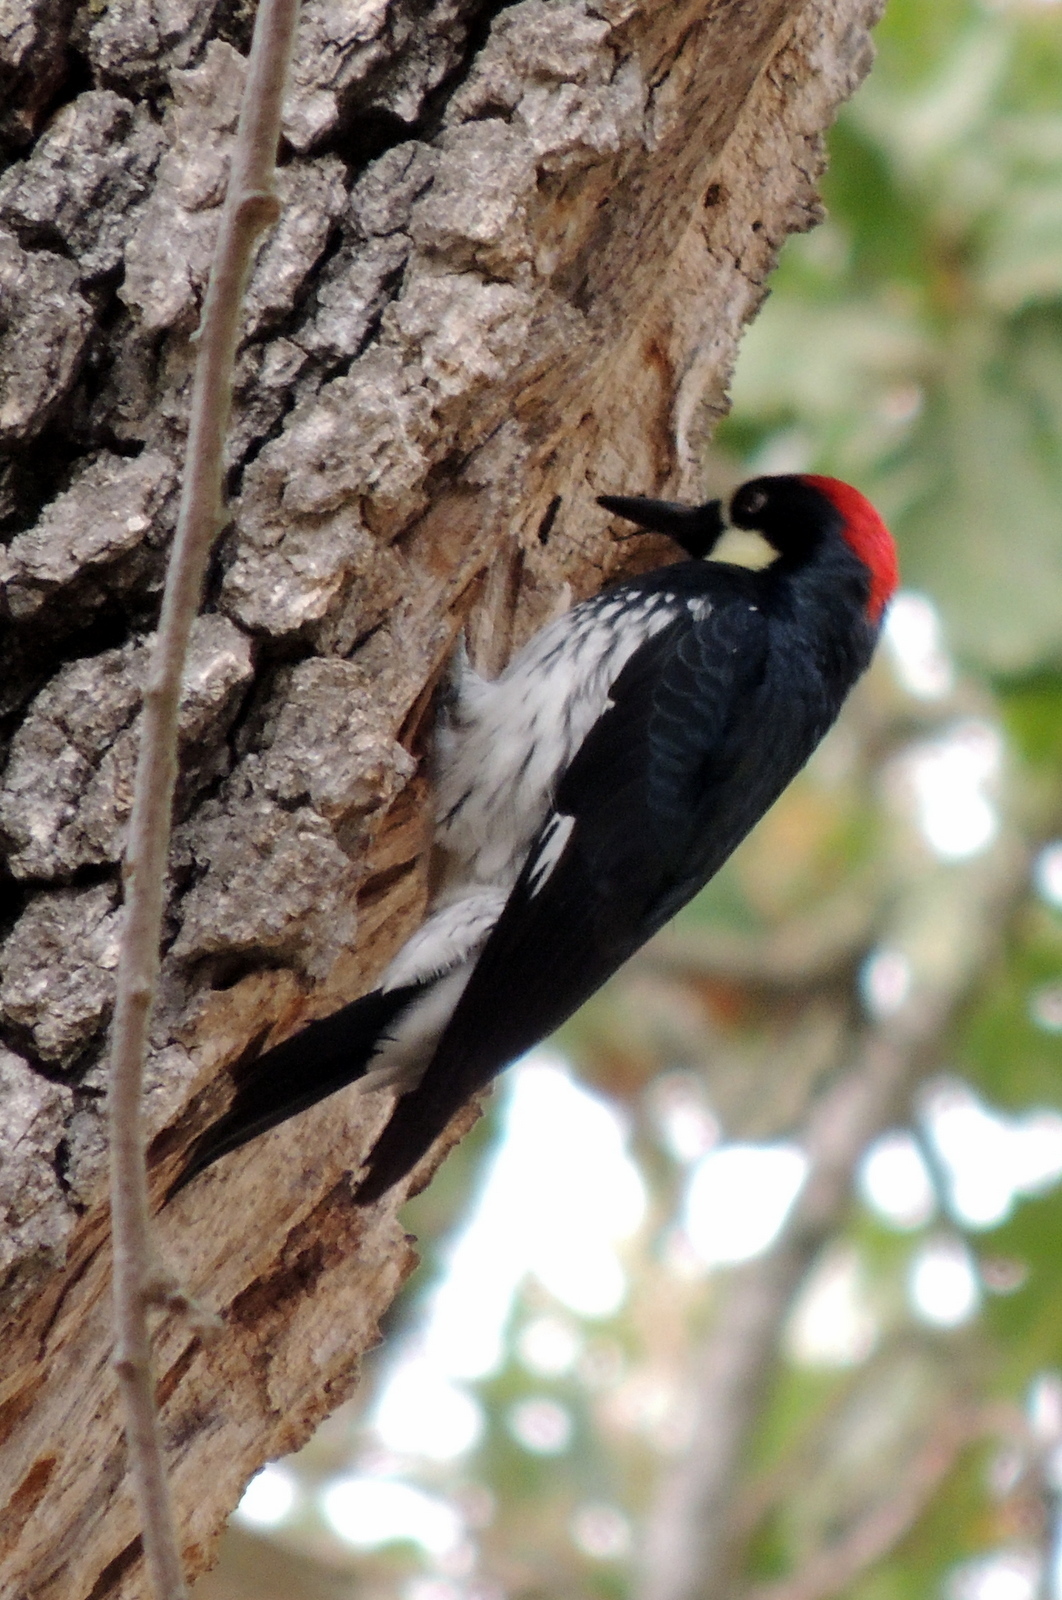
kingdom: Animalia
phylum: Chordata
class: Aves
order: Piciformes
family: Picidae
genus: Melanerpes
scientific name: Melanerpes formicivorus
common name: Acorn woodpecker
